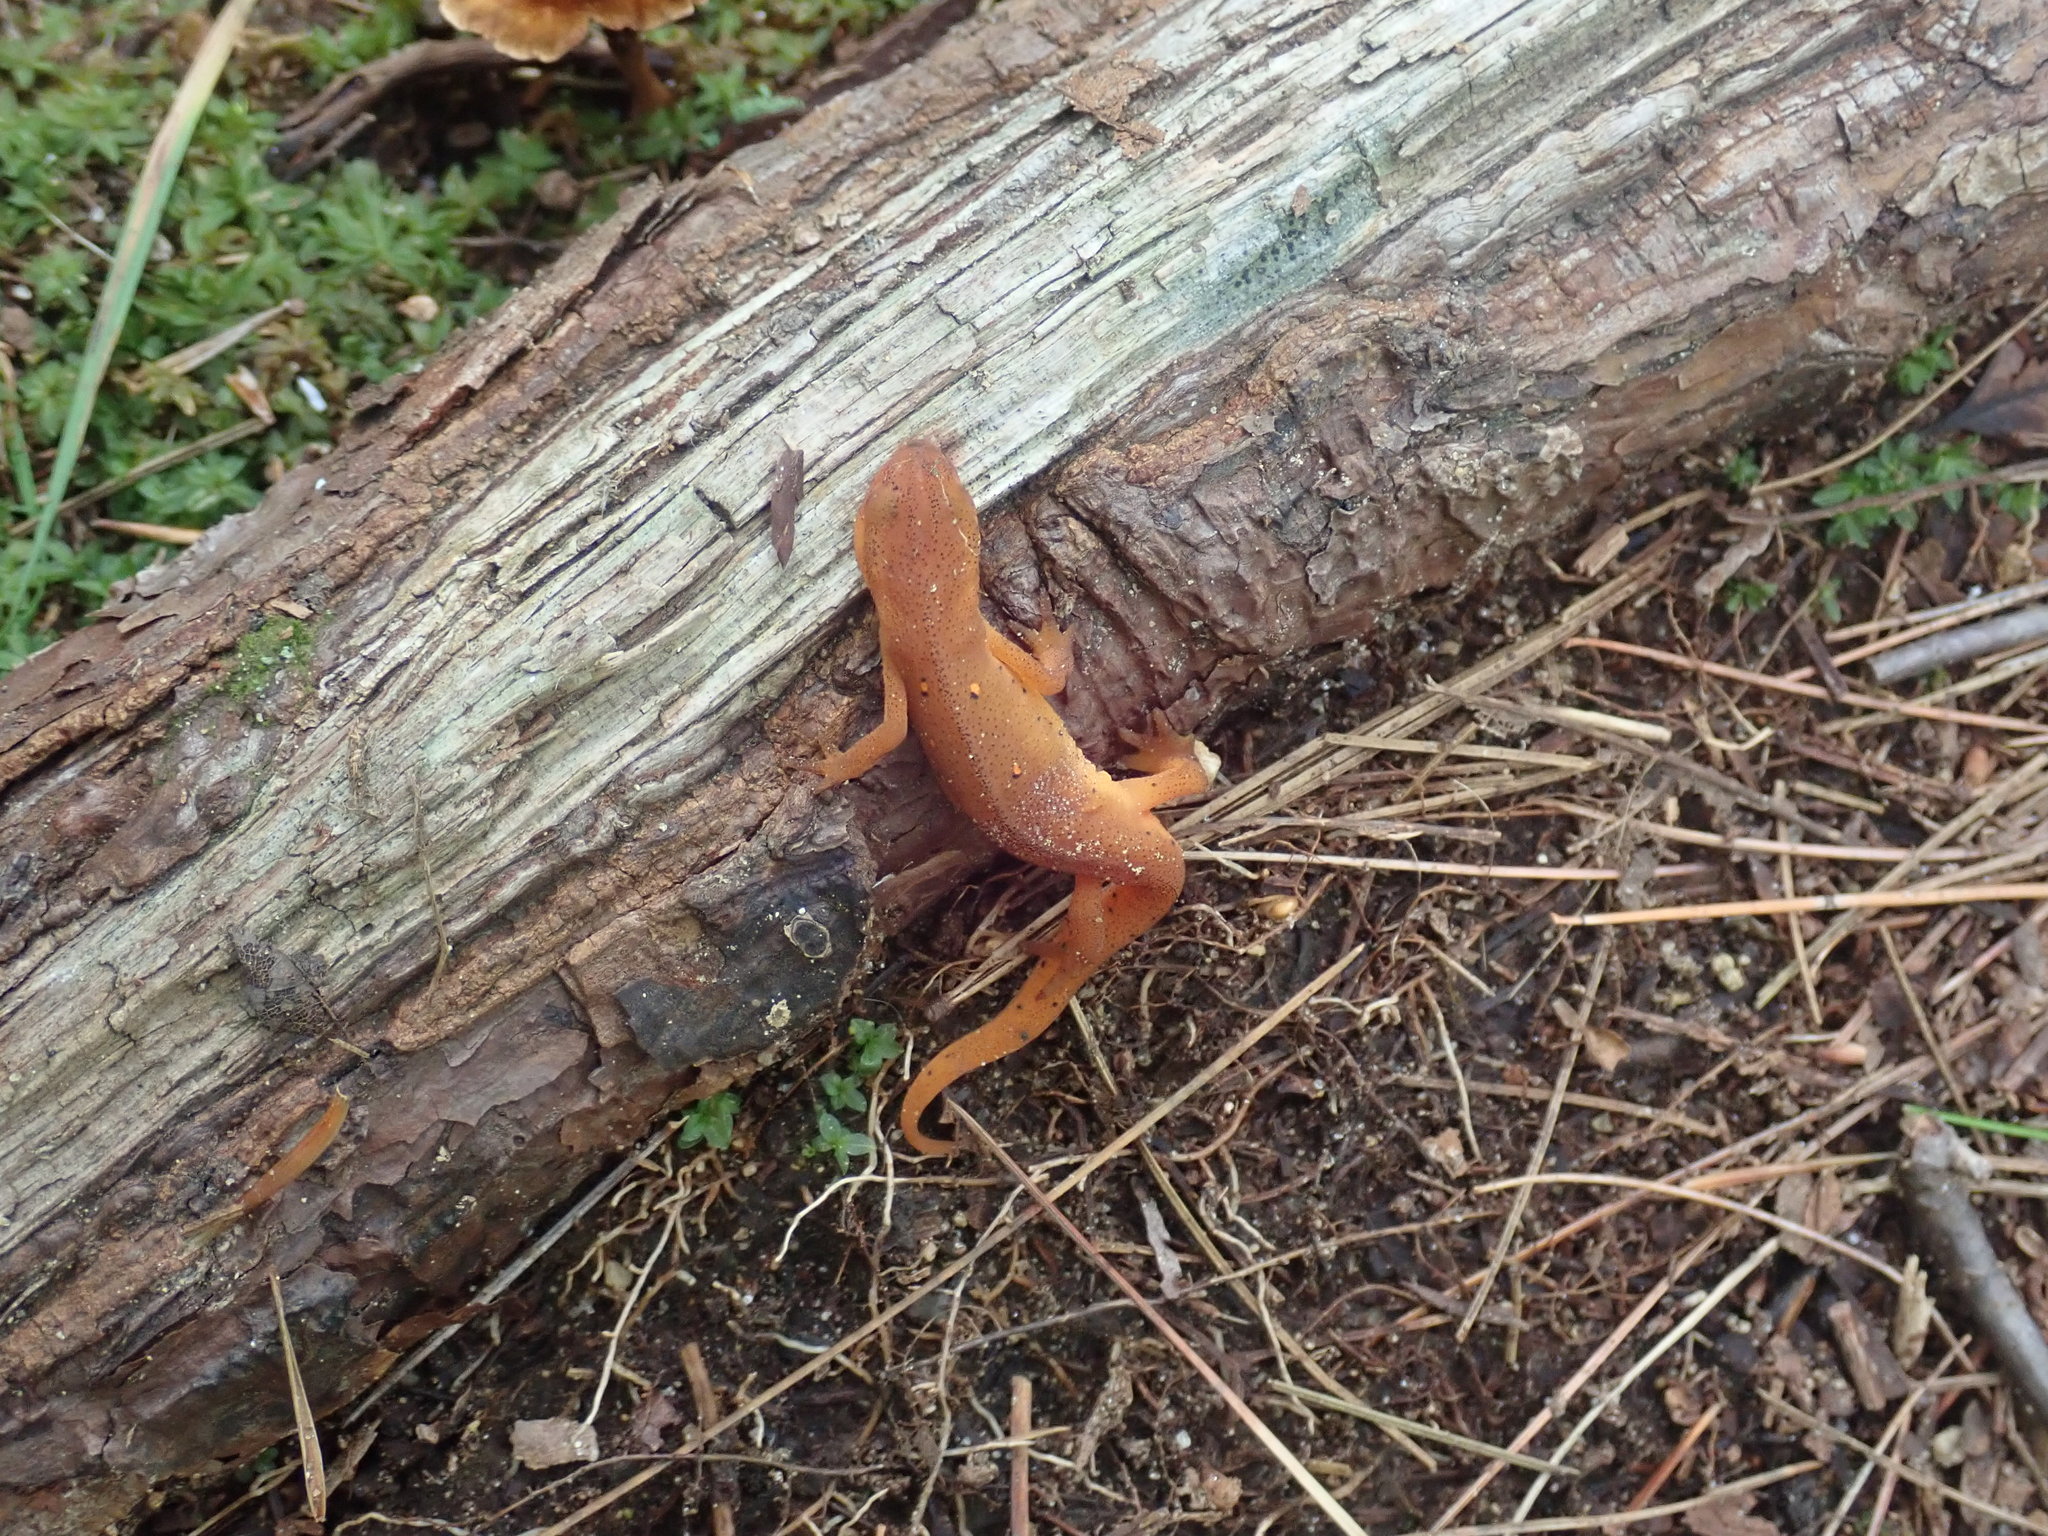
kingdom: Animalia
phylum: Chordata
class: Amphibia
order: Caudata
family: Salamandridae
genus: Notophthalmus
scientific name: Notophthalmus viridescens
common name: Eastern newt
